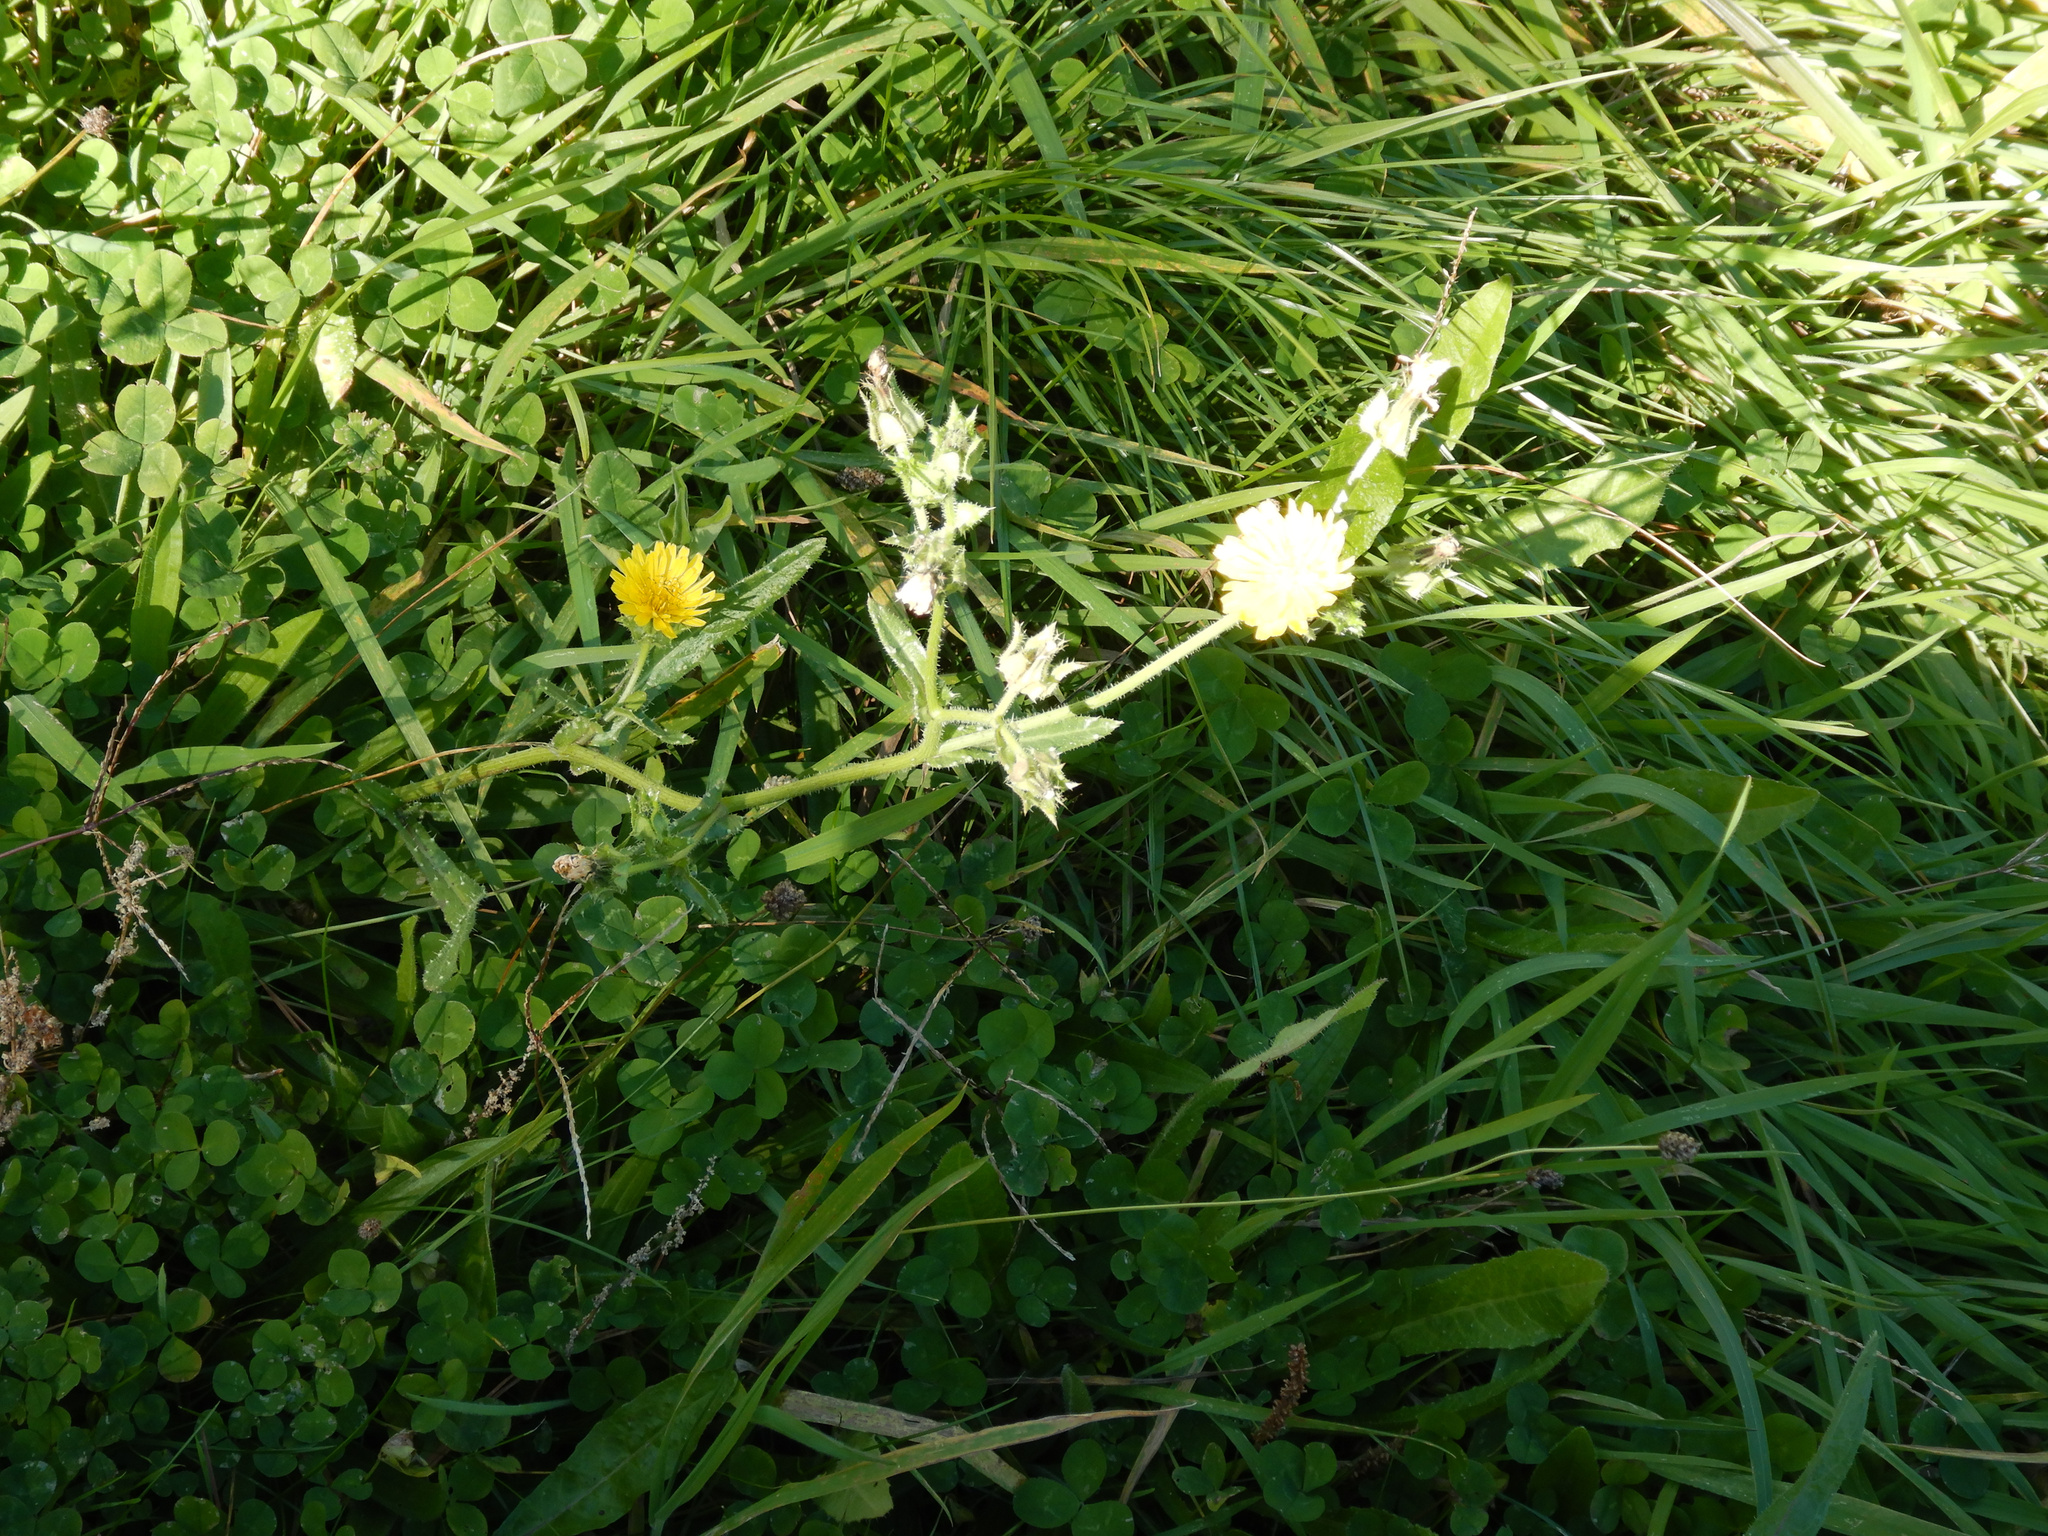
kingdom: Plantae
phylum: Tracheophyta
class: Magnoliopsida
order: Asterales
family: Asteraceae
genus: Helminthotheca
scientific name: Helminthotheca echioides
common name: Ox-tongue
